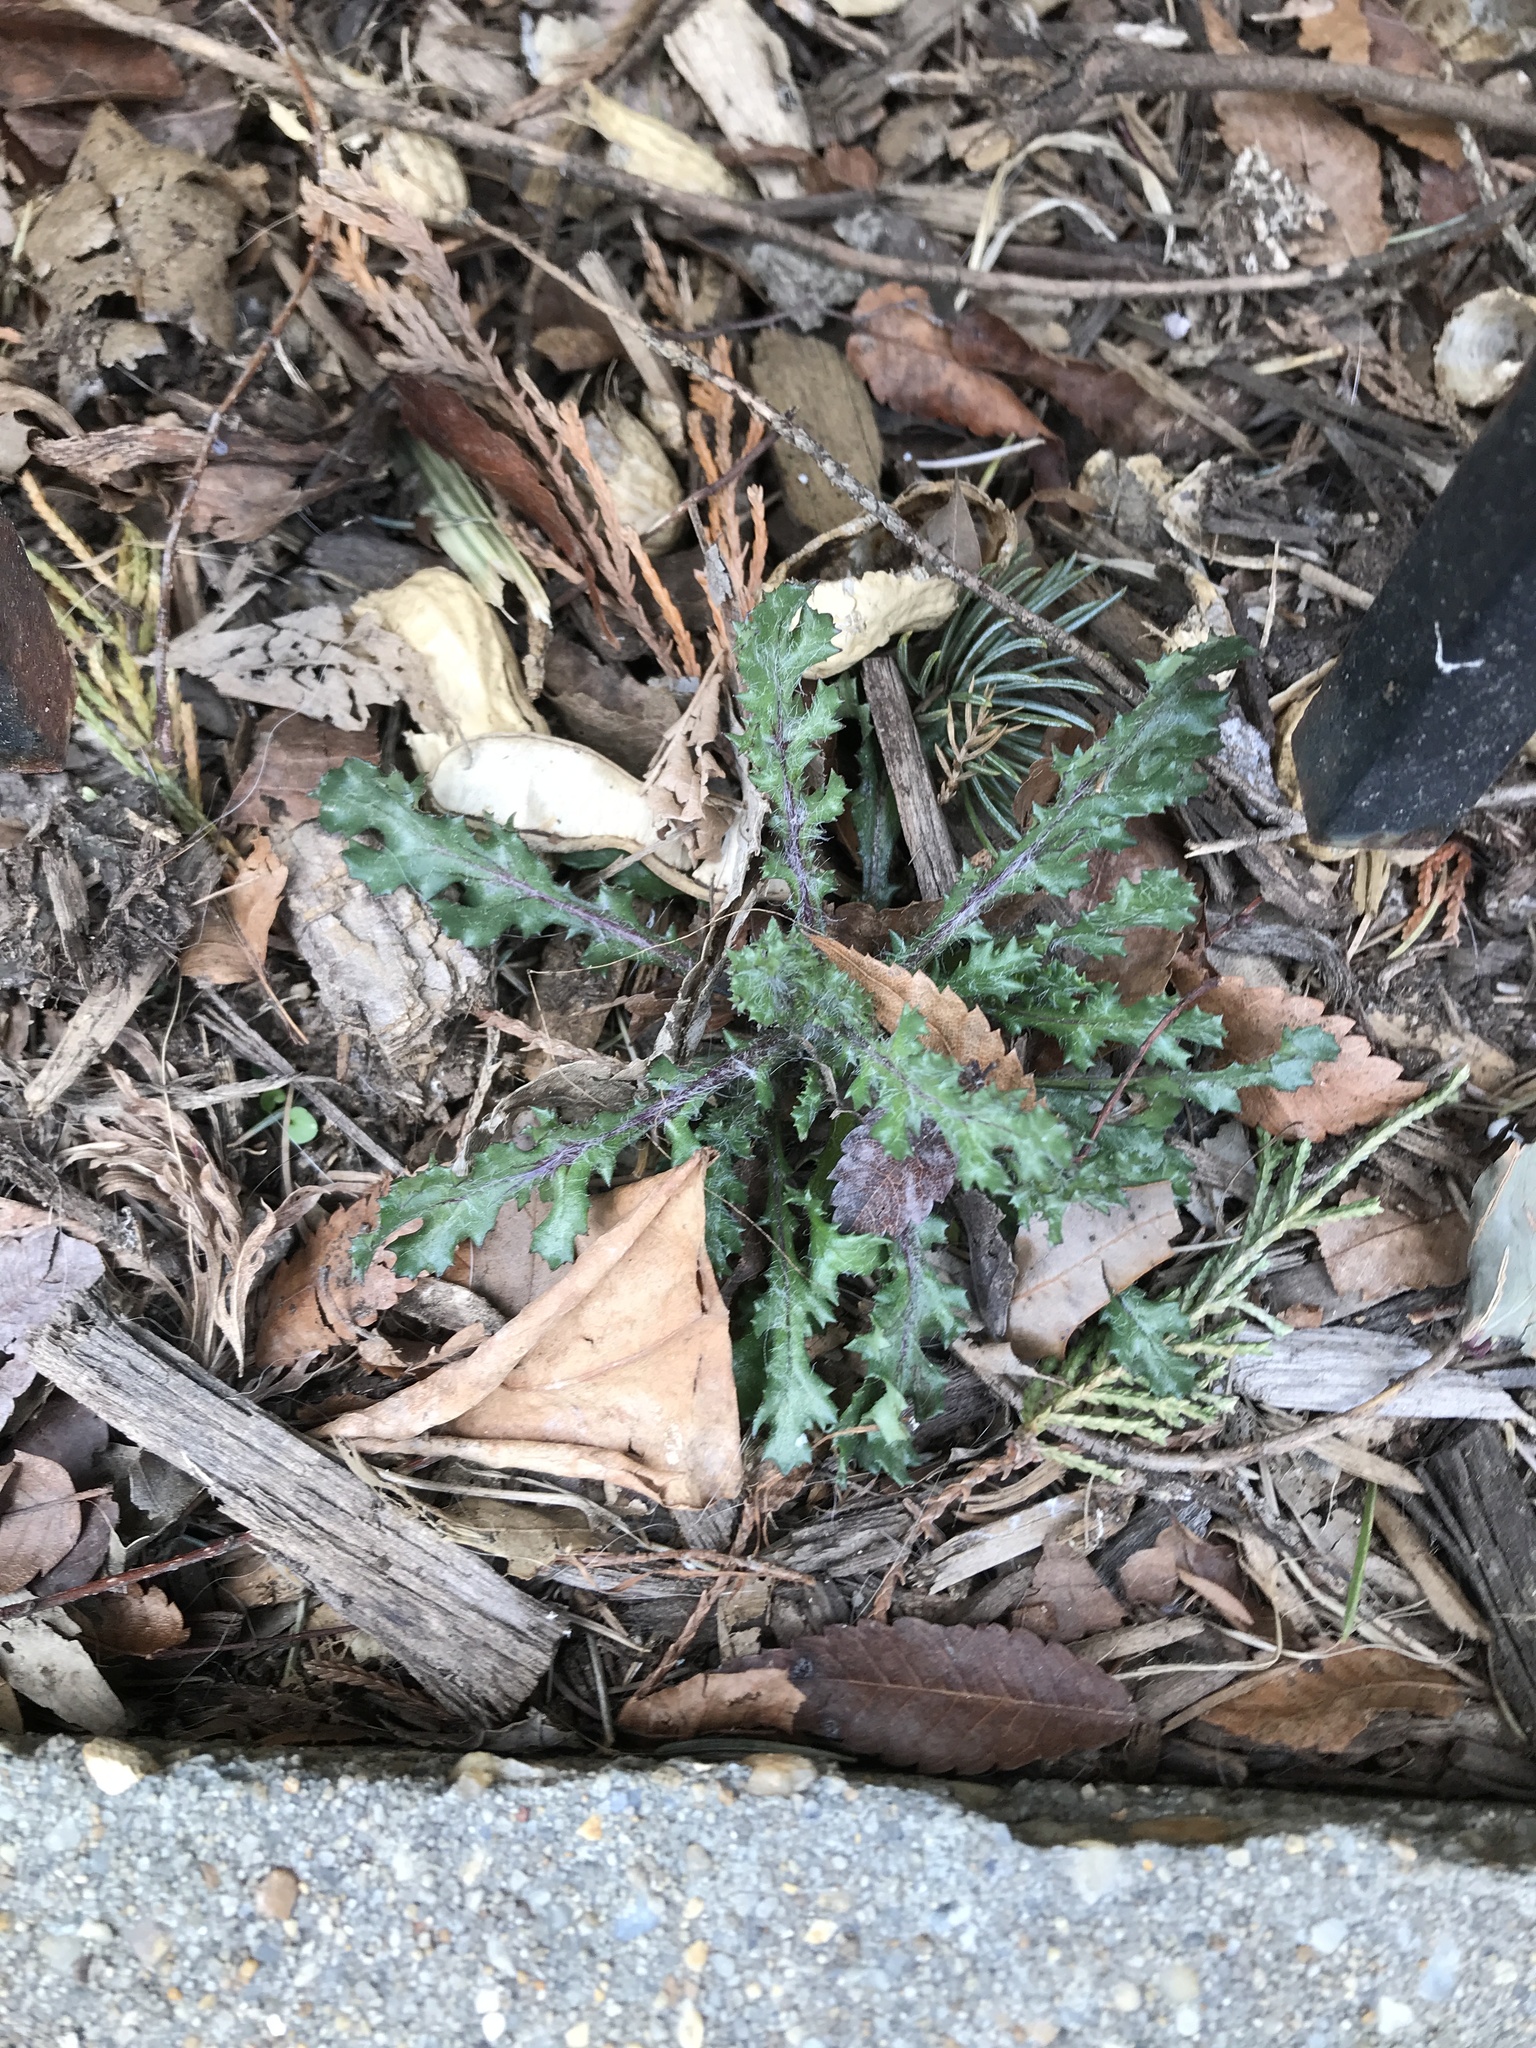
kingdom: Plantae
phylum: Tracheophyta
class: Magnoliopsida
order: Asterales
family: Asteraceae
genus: Senecio
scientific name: Senecio vulgaris
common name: Old-man-in-the-spring
